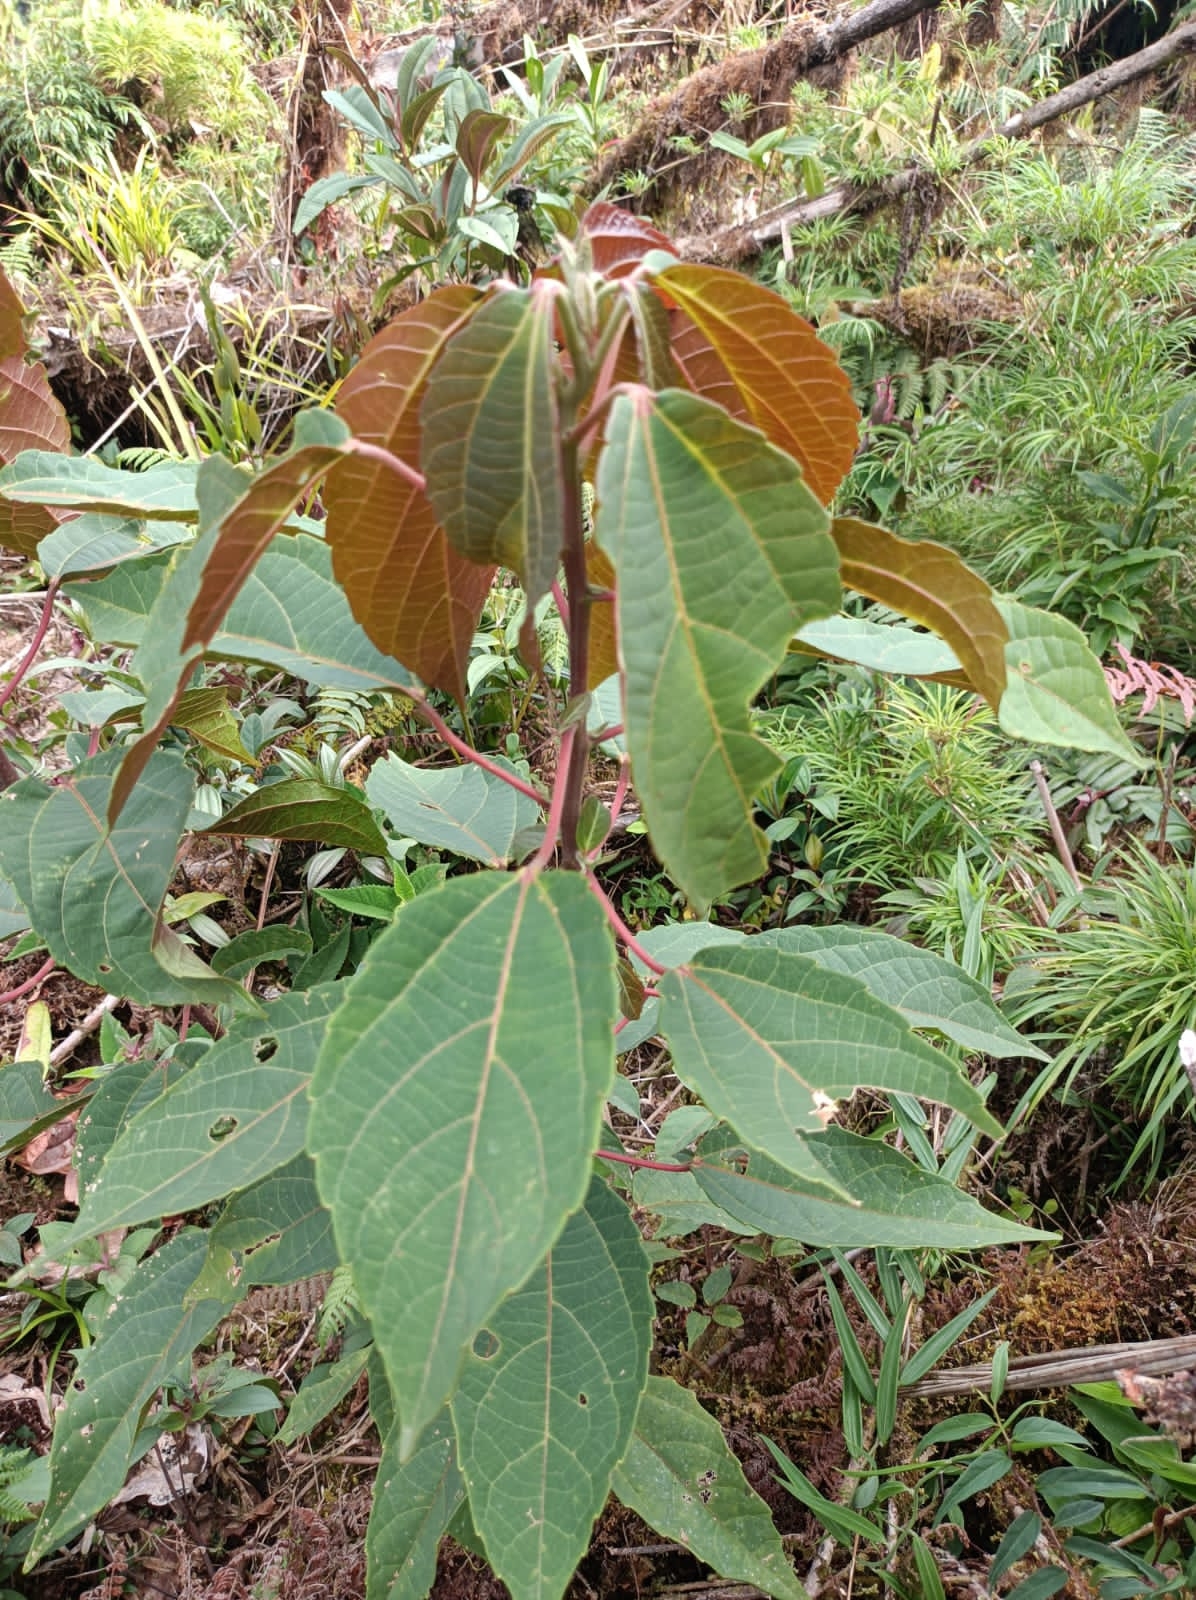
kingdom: Plantae
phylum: Tracheophyta
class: Magnoliopsida
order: Malpighiales
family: Euphorbiaceae
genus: Alchornea
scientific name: Alchornea latifolia
